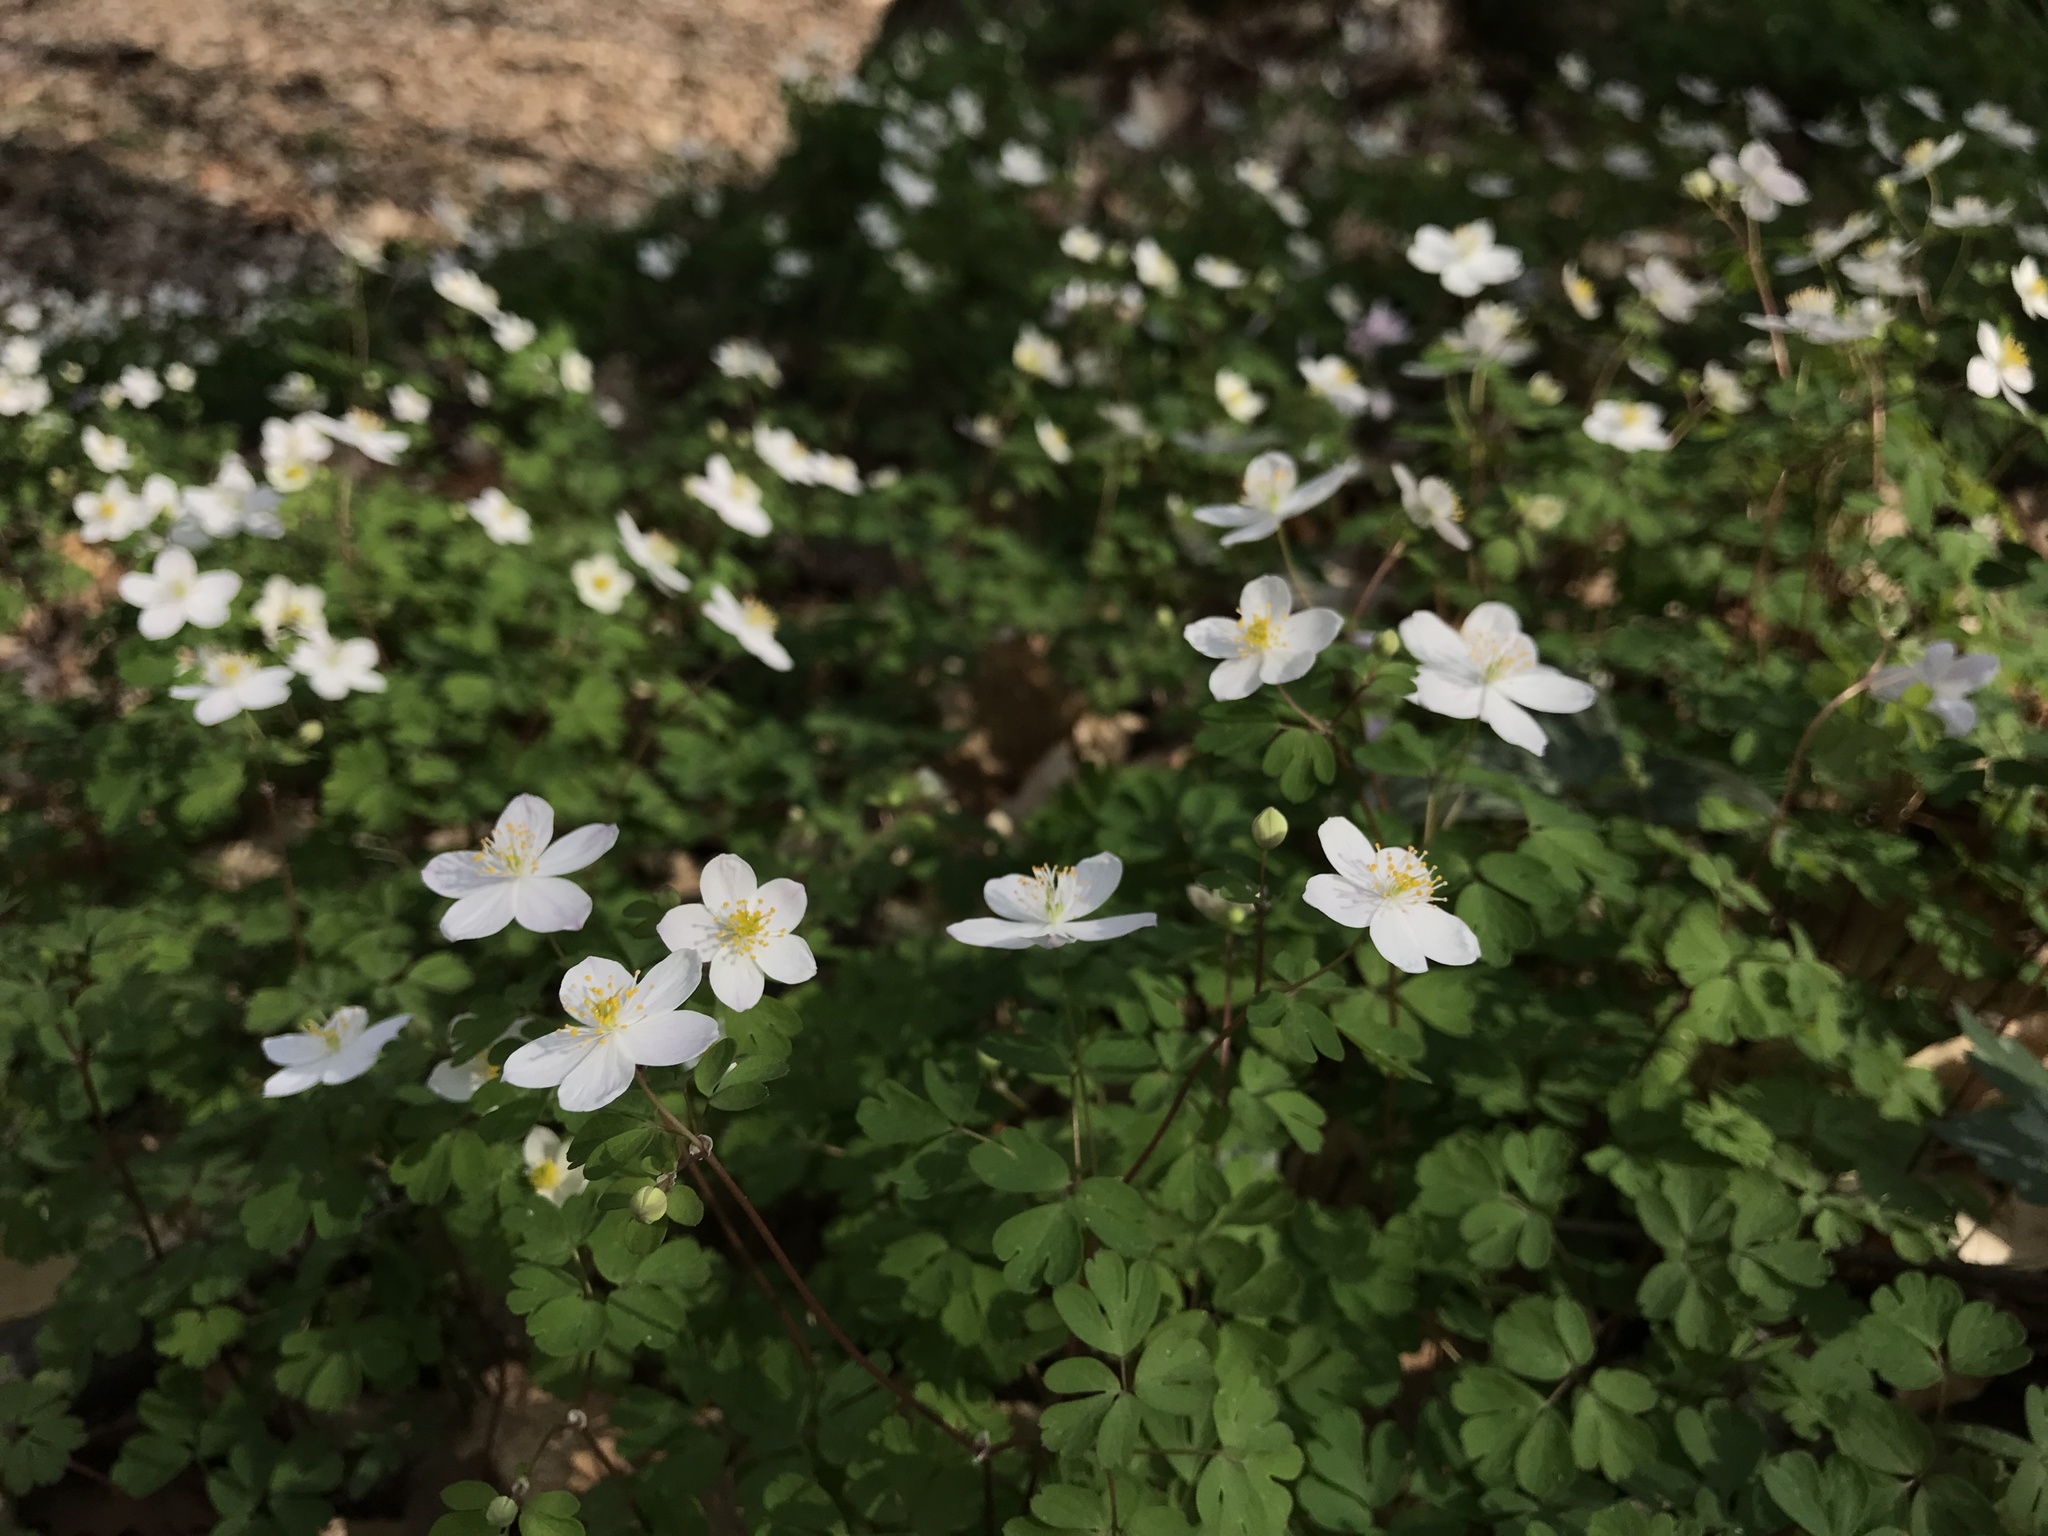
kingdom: Plantae
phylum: Tracheophyta
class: Magnoliopsida
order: Ranunculales
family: Ranunculaceae
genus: Enemion
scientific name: Enemion biternatum
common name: Eastern false rue-anemone
